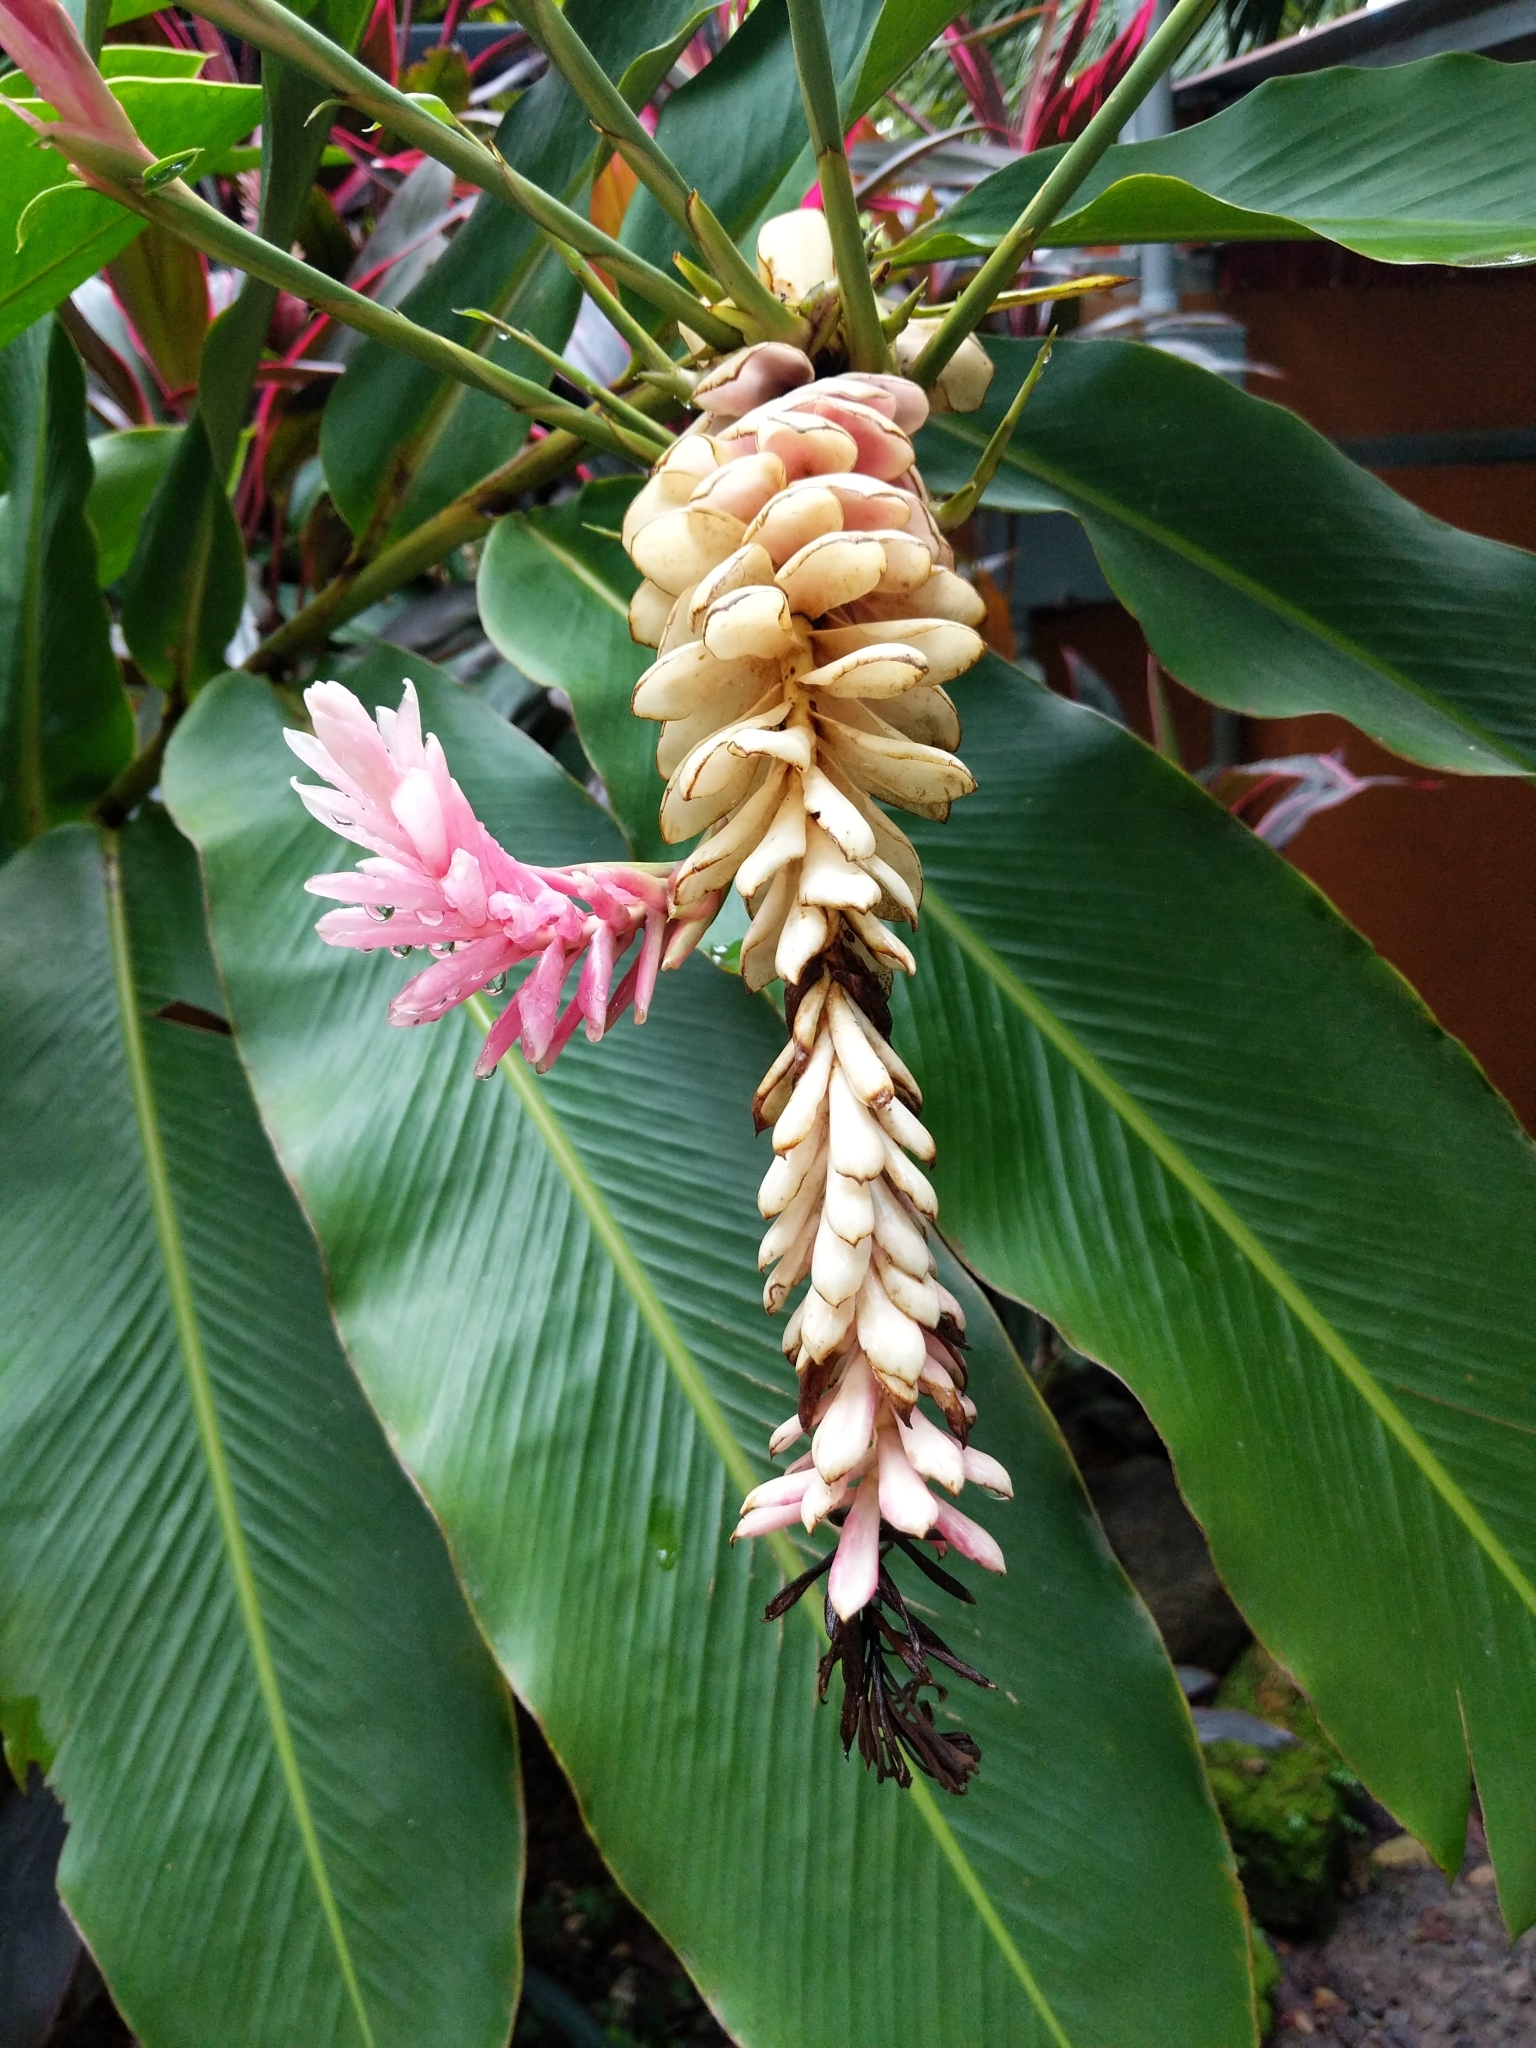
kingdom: Plantae
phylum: Tracheophyta
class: Liliopsida
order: Zingiberales
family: Zingiberaceae
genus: Alpinia
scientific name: Alpinia purpurata
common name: Red ginger
